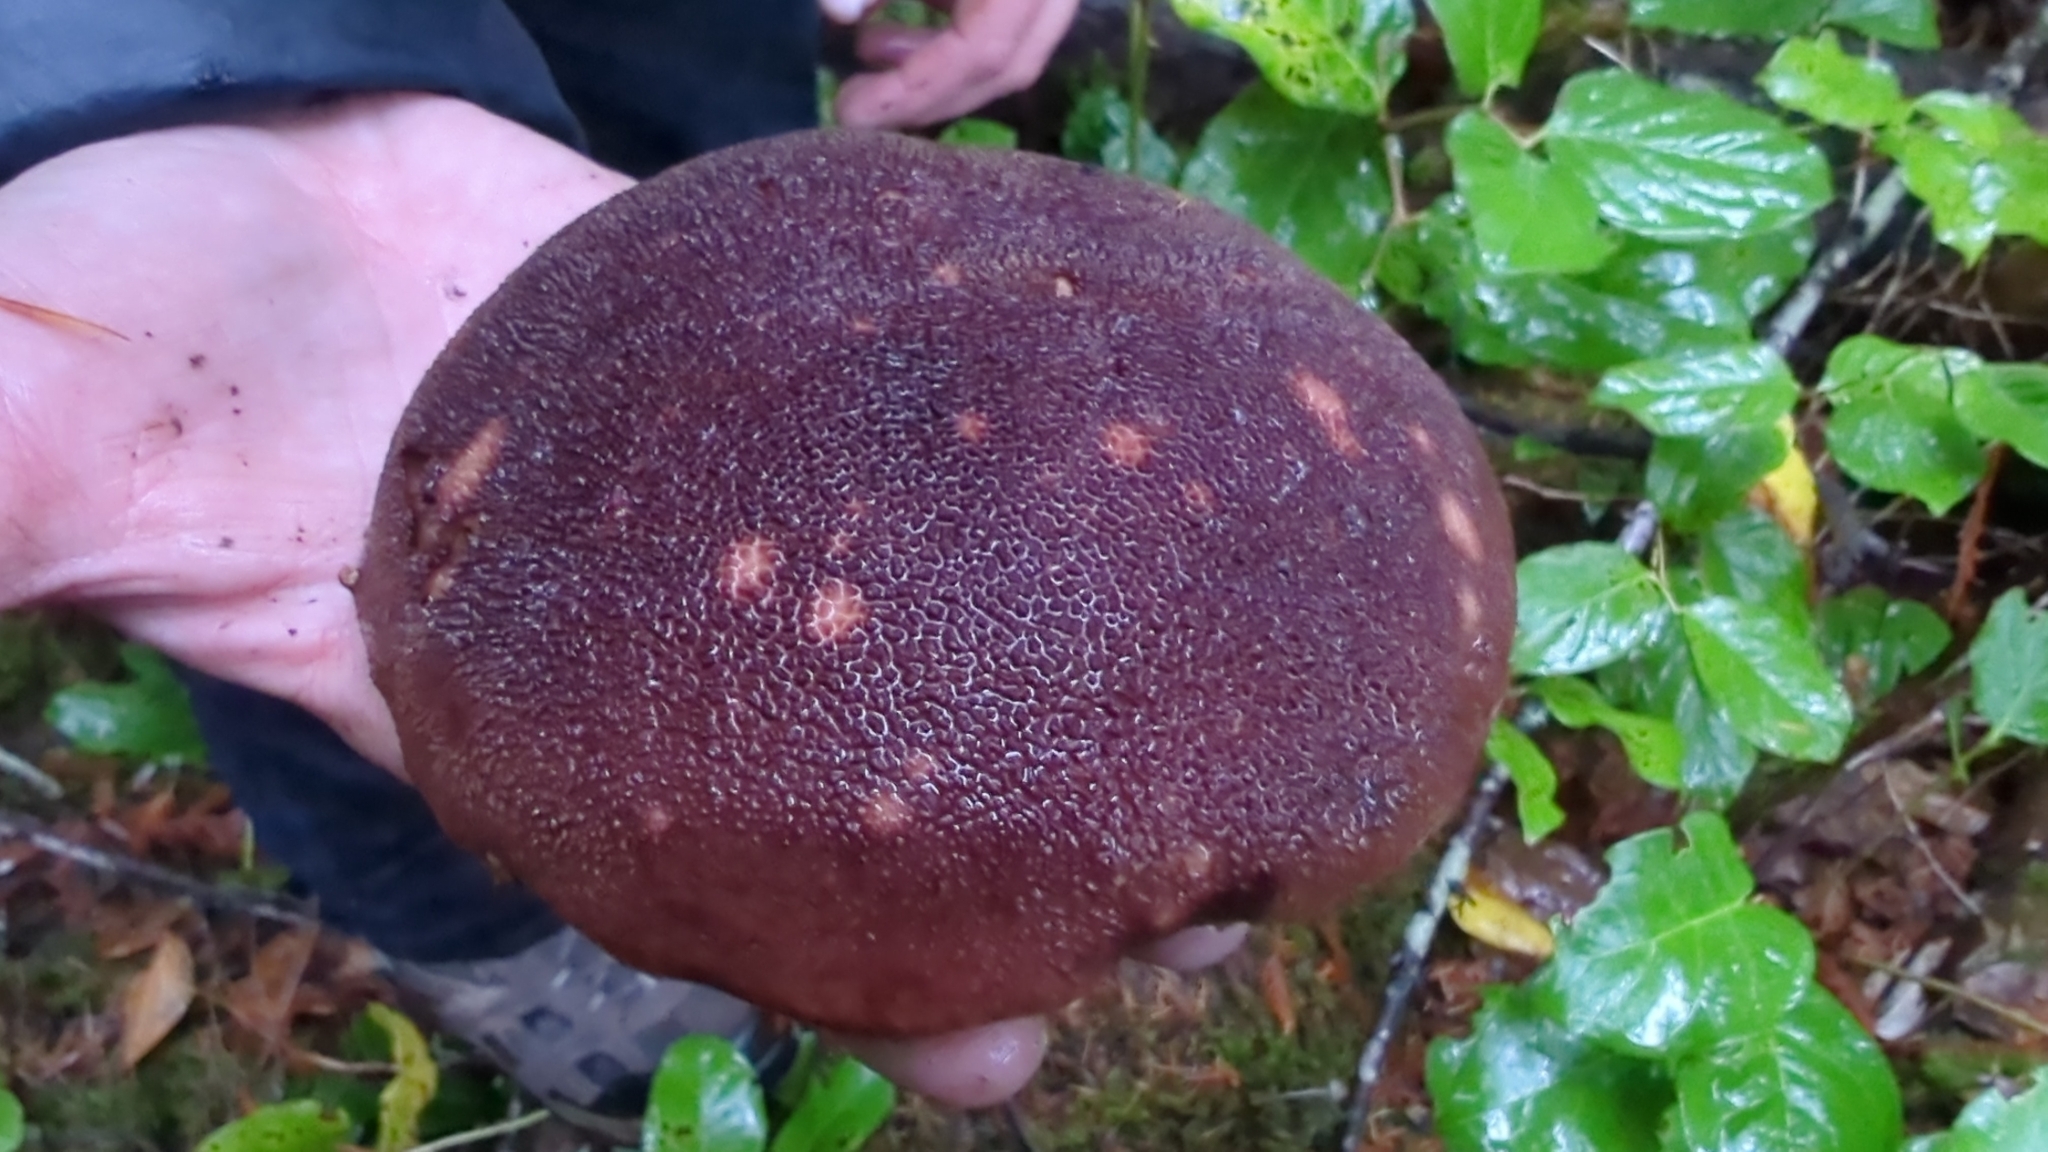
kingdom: Fungi
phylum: Basidiomycota
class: Agaricomycetes
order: Boletales
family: Boletaceae
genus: Aureoboletus
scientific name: Aureoboletus mirabilis
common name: Admirable bolete
